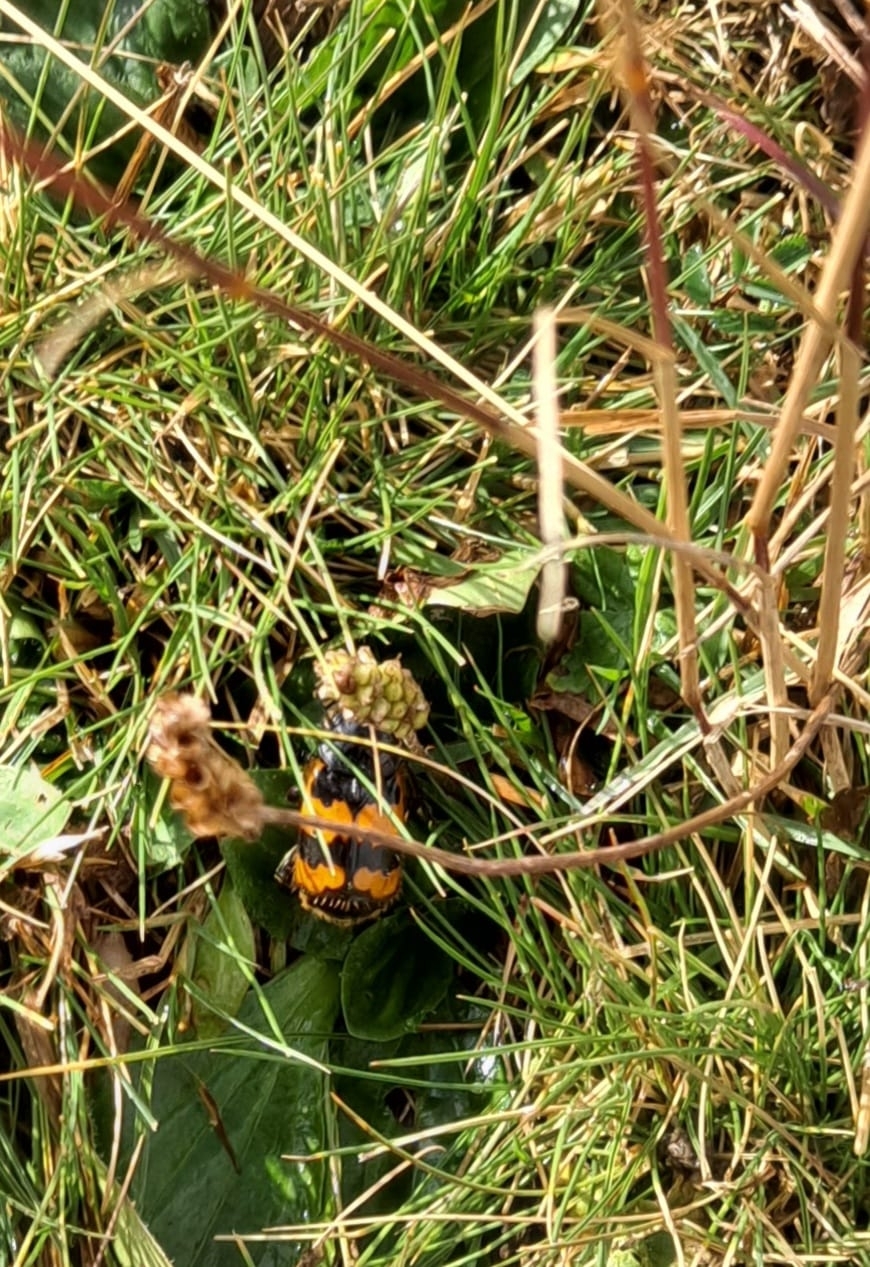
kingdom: Animalia
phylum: Arthropoda
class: Insecta
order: Coleoptera
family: Staphylinidae
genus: Nicrophorus
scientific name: Nicrophorus vespillo
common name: Common burying beetle
